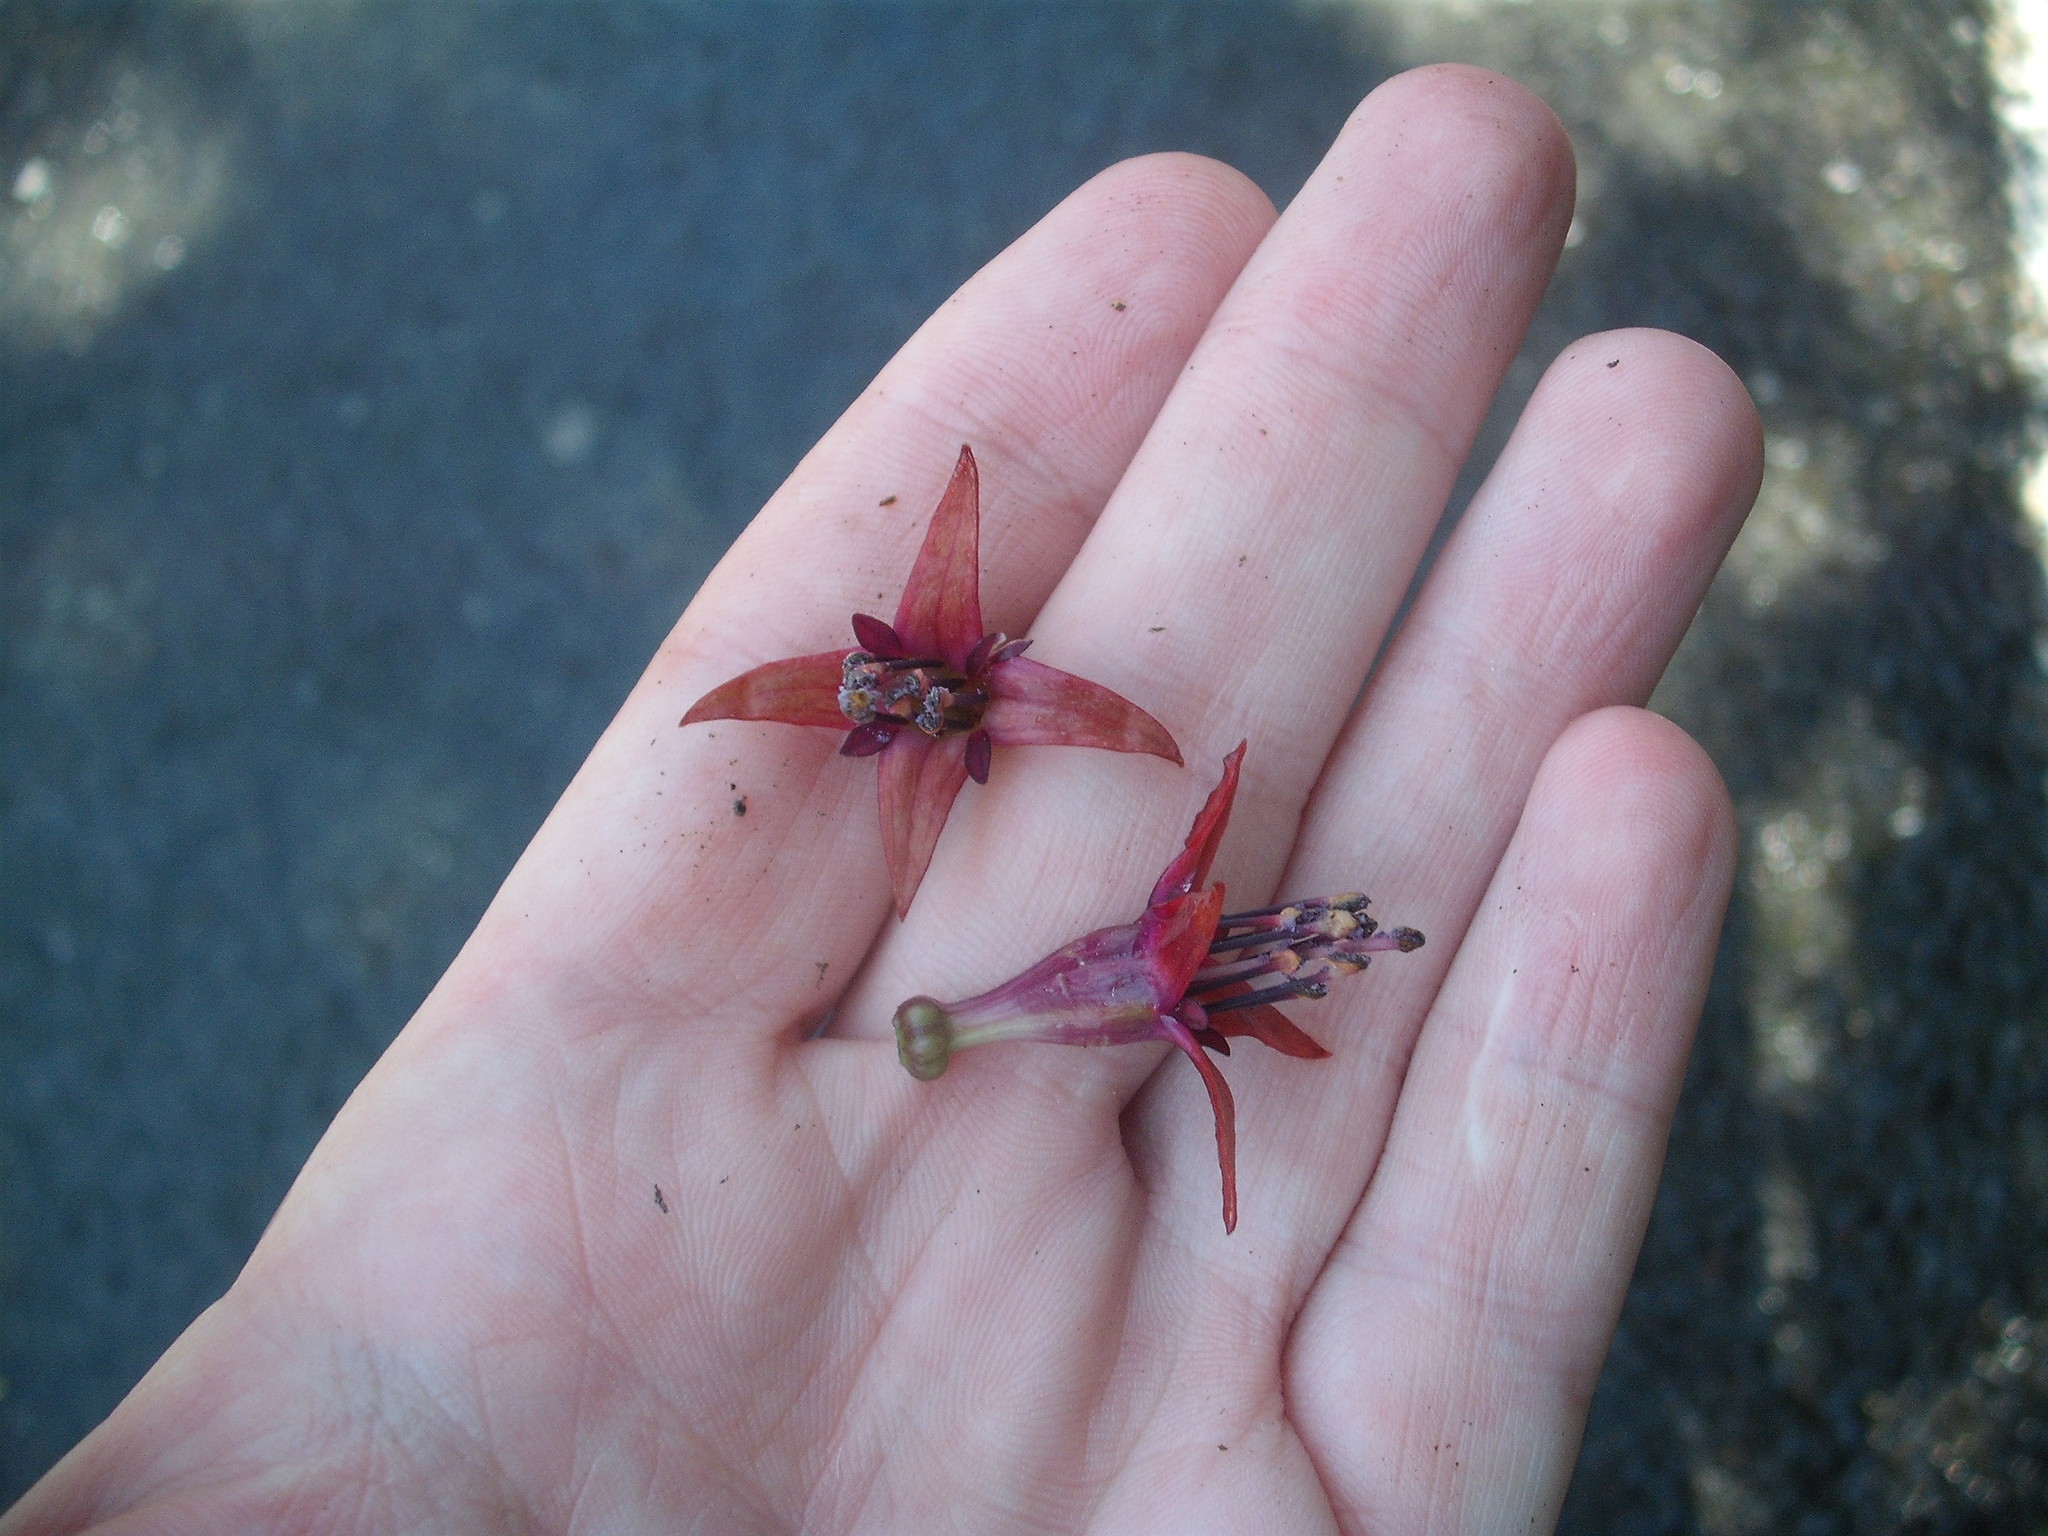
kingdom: Plantae
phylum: Tracheophyta
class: Magnoliopsida
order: Myrtales
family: Onagraceae
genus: Fuchsia
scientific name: Fuchsia excorticata
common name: Tree fuchsia
